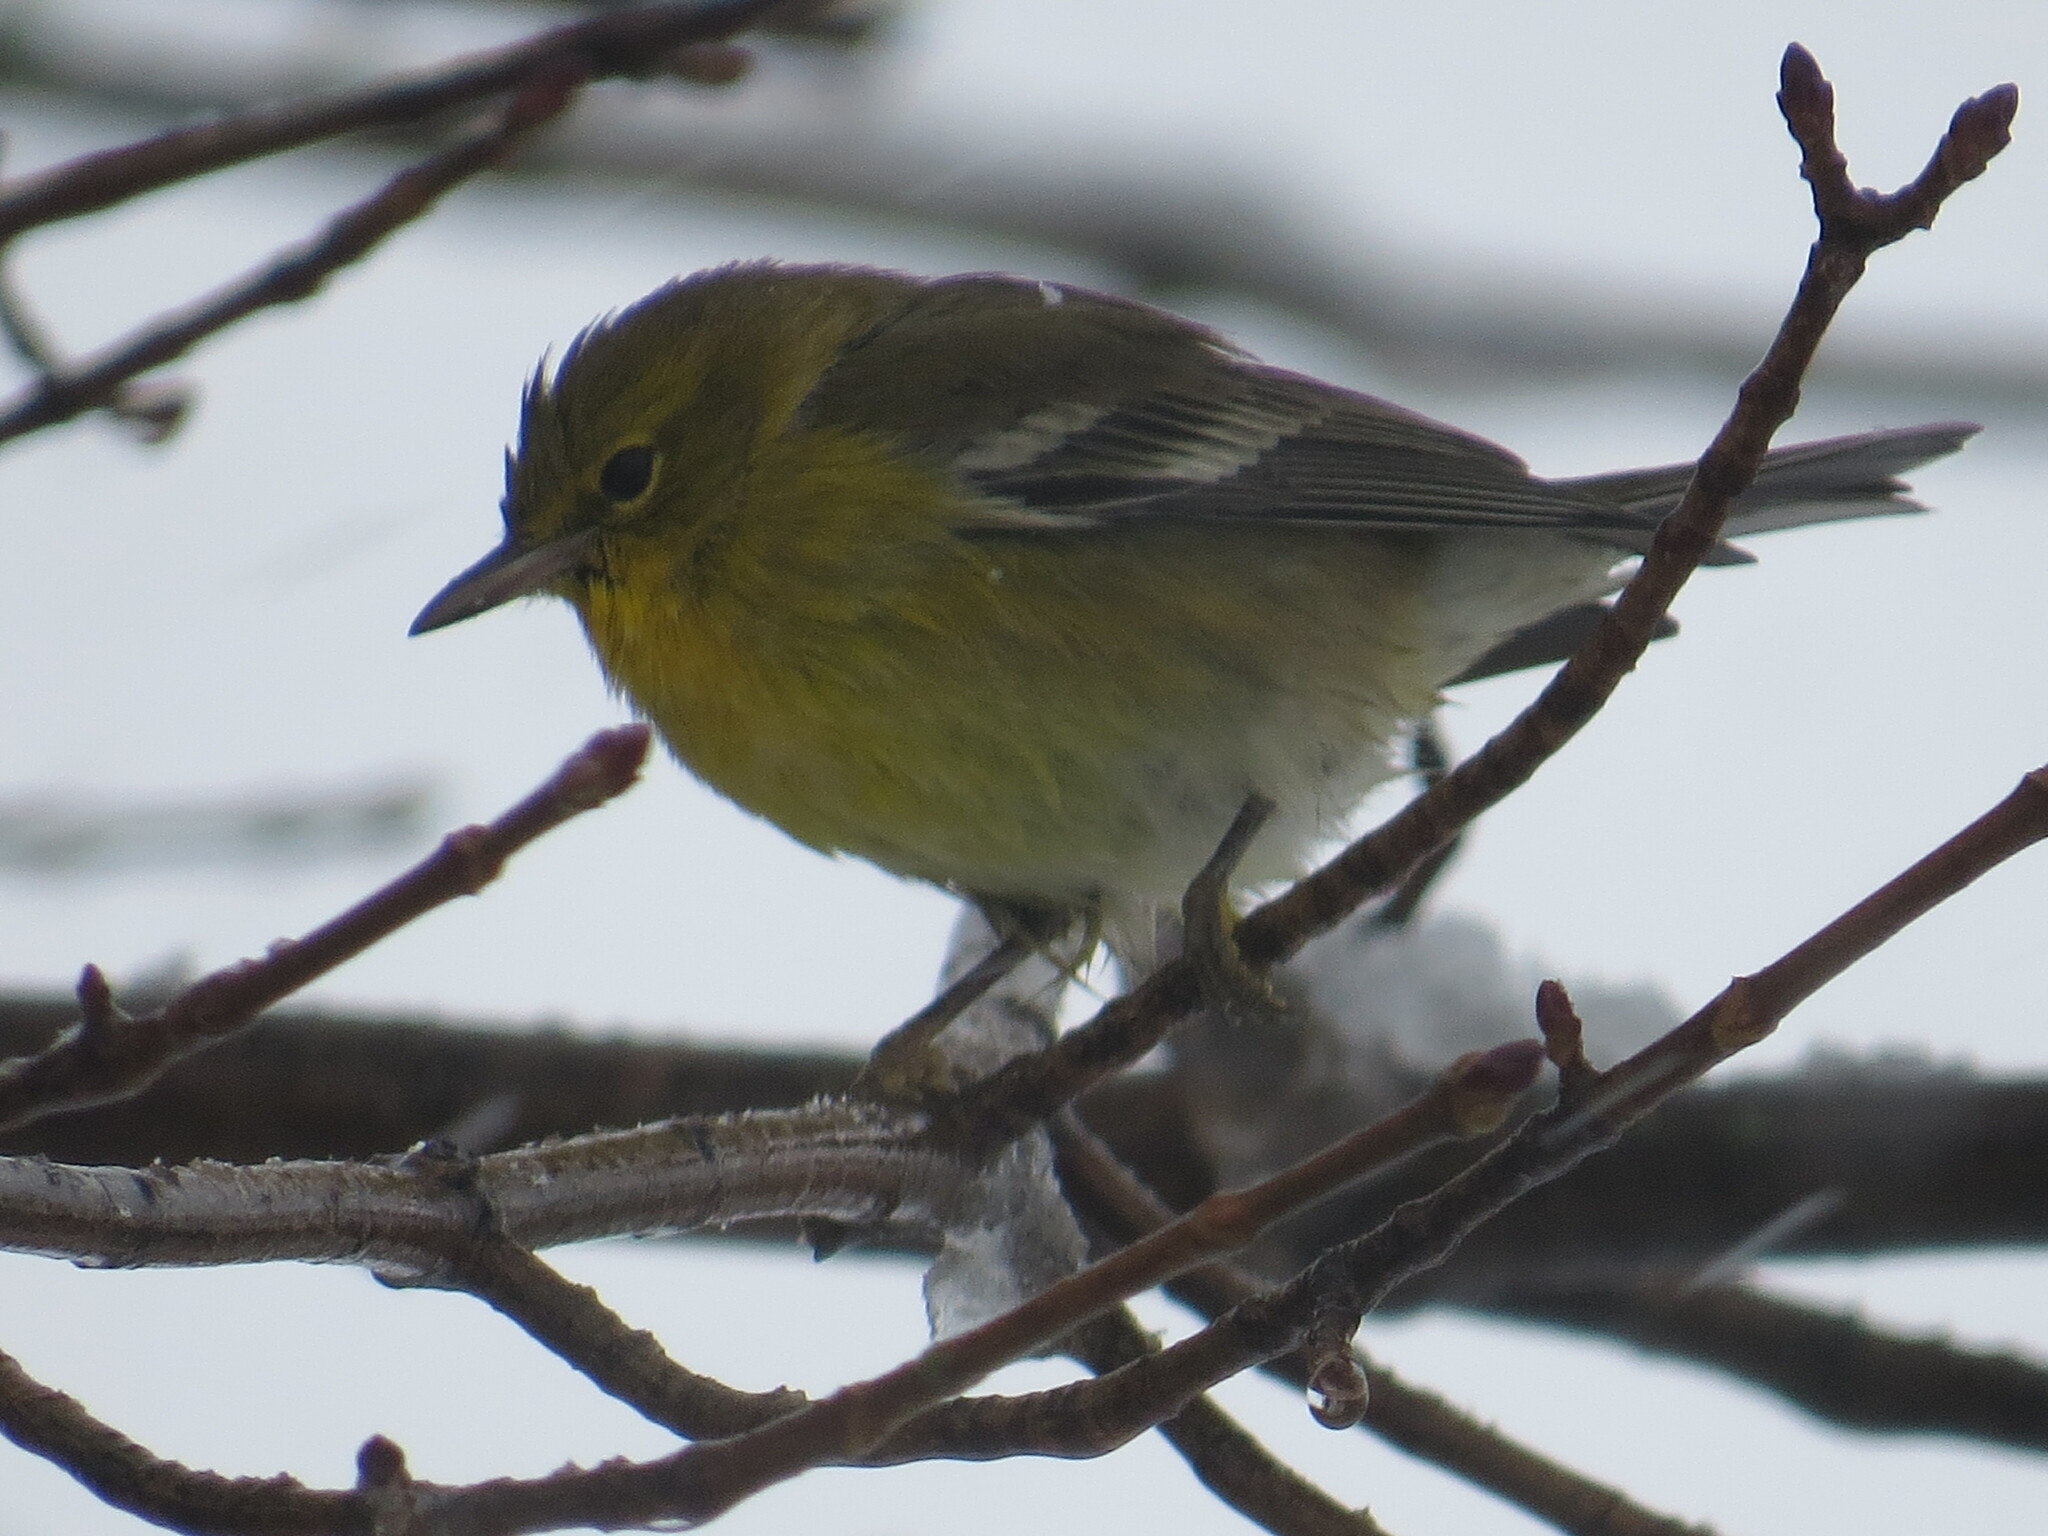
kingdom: Animalia
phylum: Chordata
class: Aves
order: Passeriformes
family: Parulidae
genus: Setophaga
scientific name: Setophaga pinus
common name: Pine warbler
